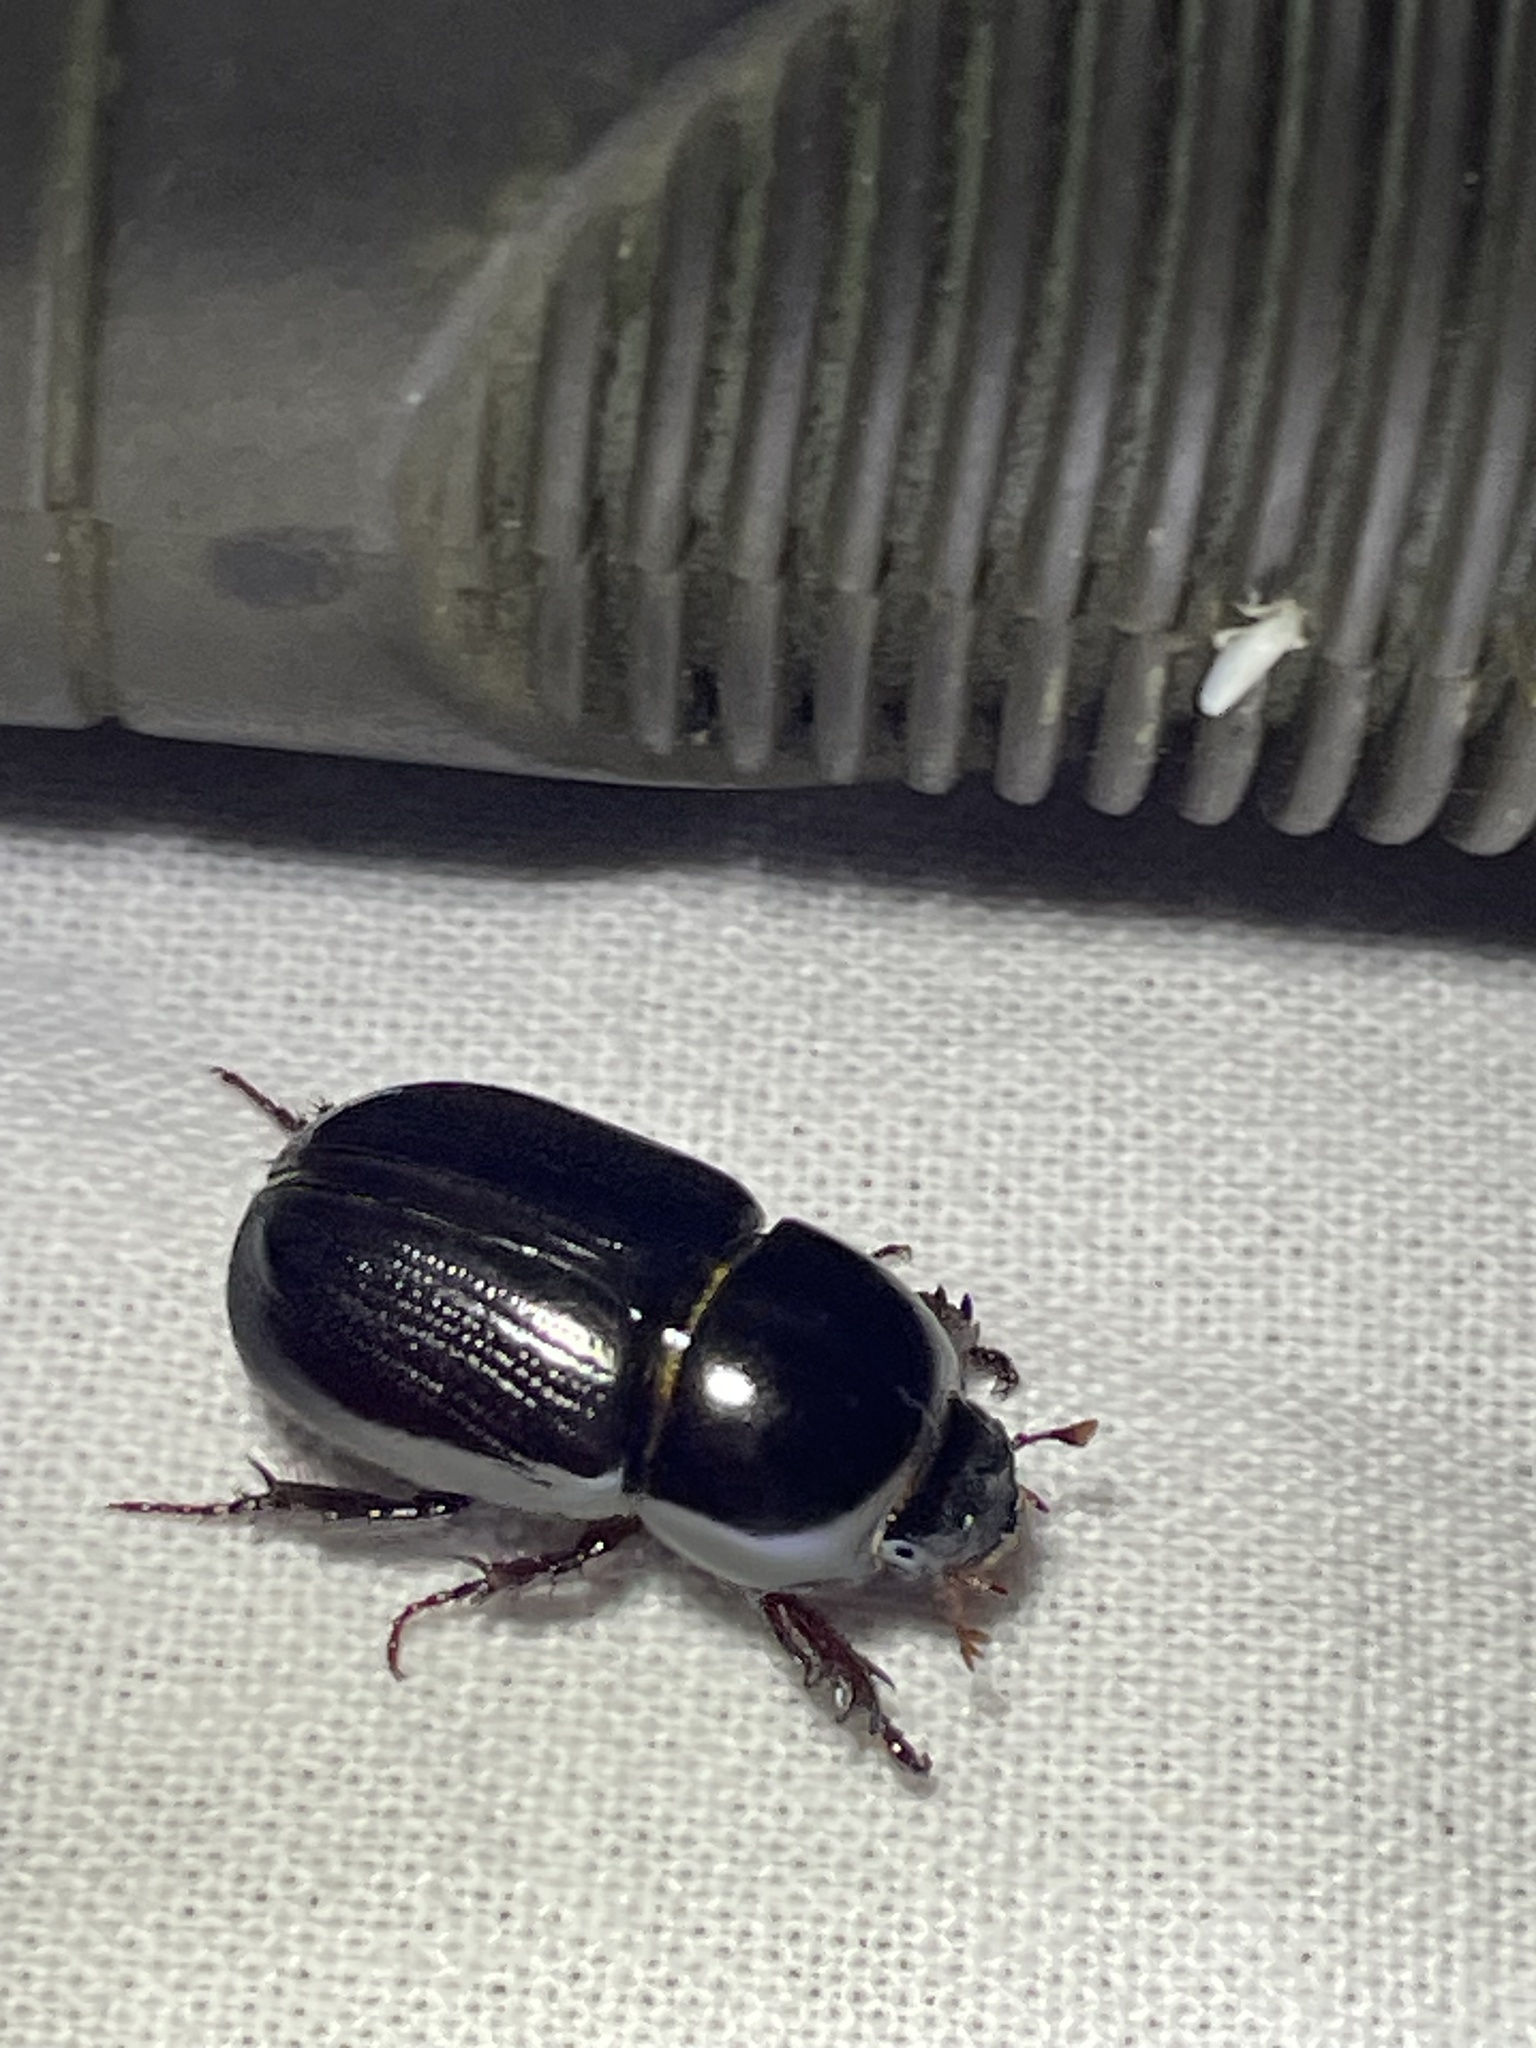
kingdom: Animalia
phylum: Arthropoda
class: Insecta
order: Coleoptera
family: Scarabaeidae
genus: Heteronychus
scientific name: Heteronychus arator
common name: African black beetle
